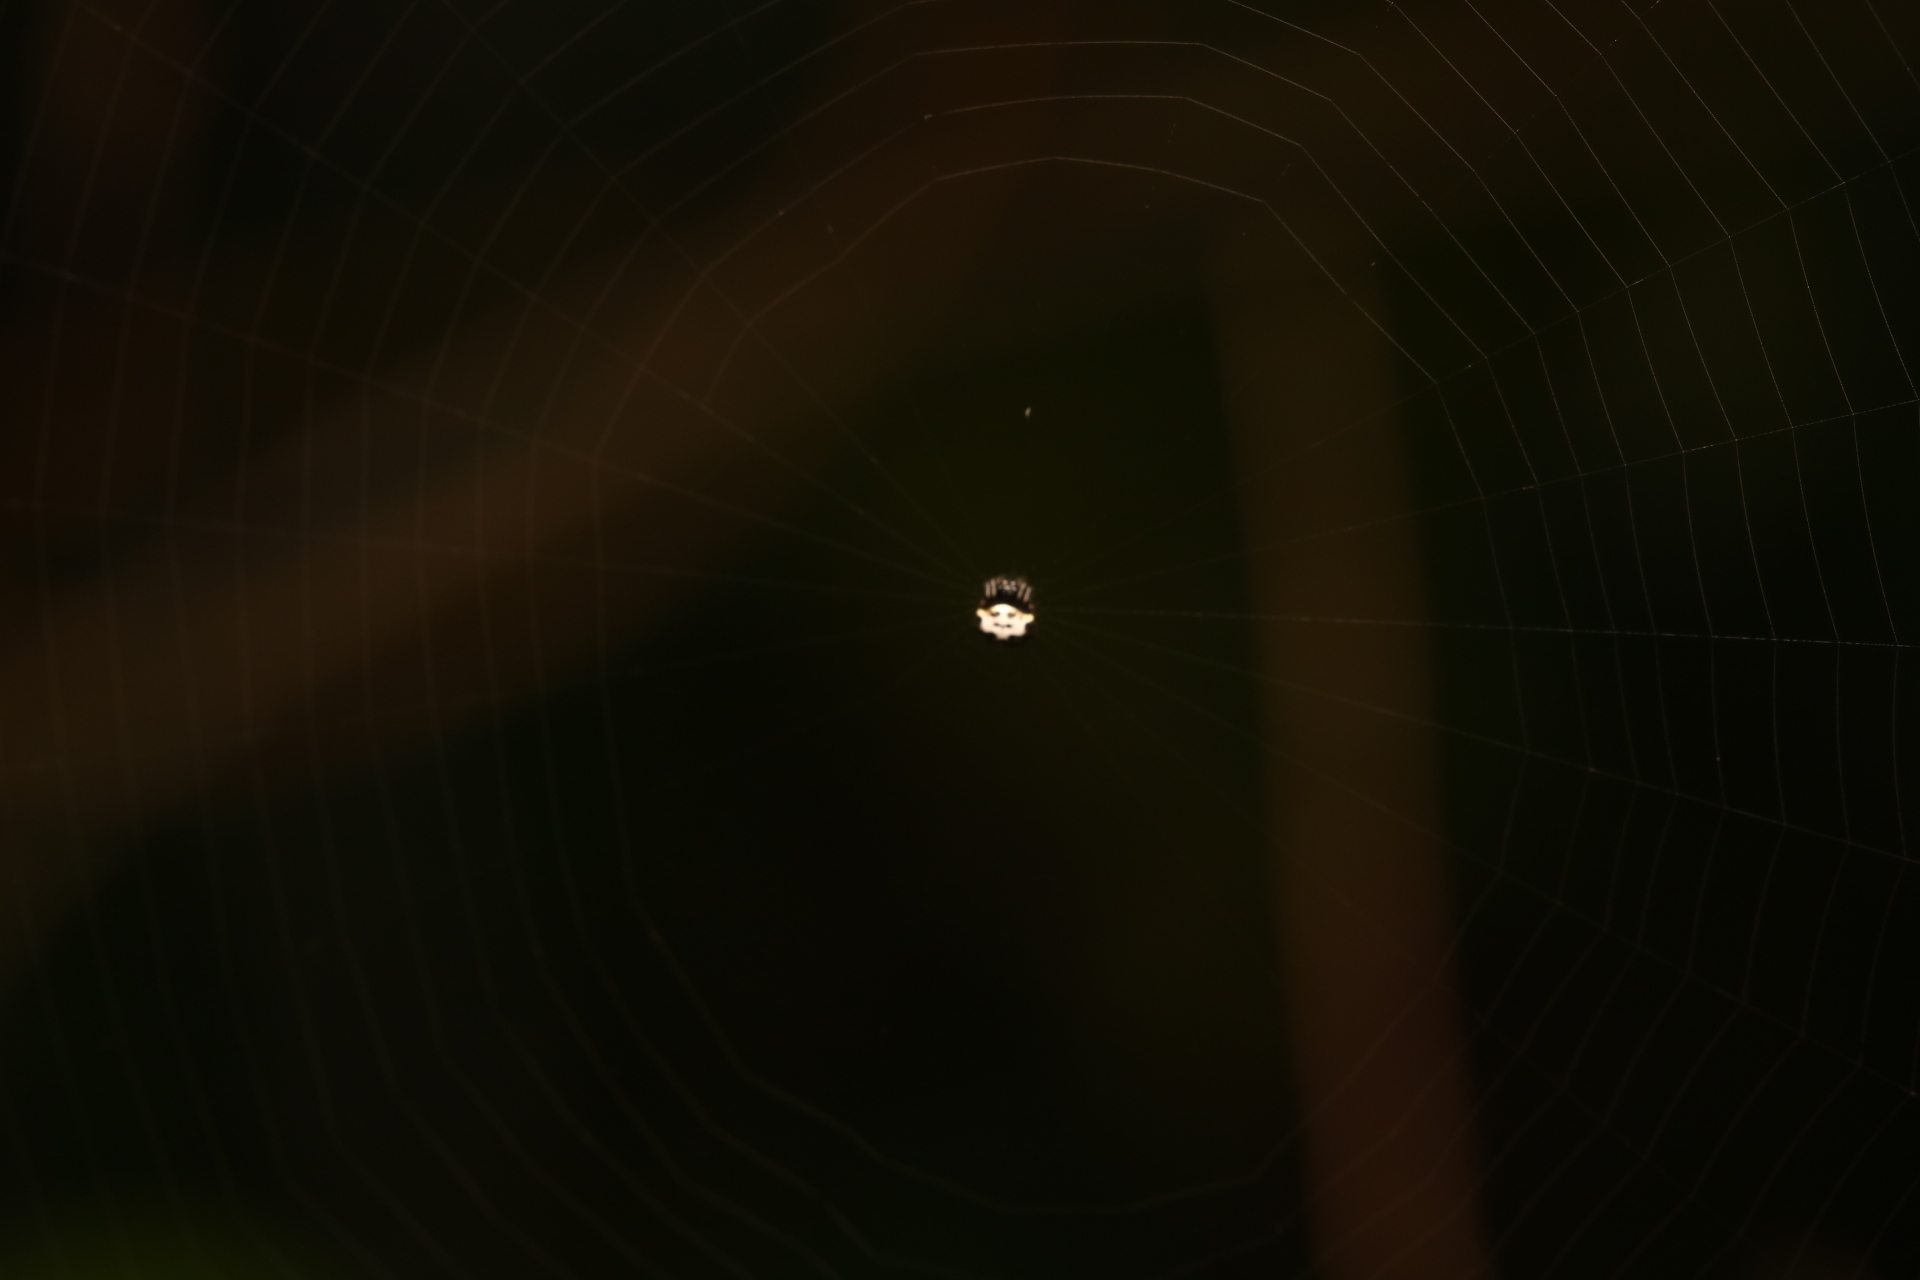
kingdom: Animalia
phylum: Arthropoda
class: Arachnida
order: Araneae
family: Araneidae
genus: Gasteracantha
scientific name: Gasteracantha cancriformis
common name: Orb weavers
